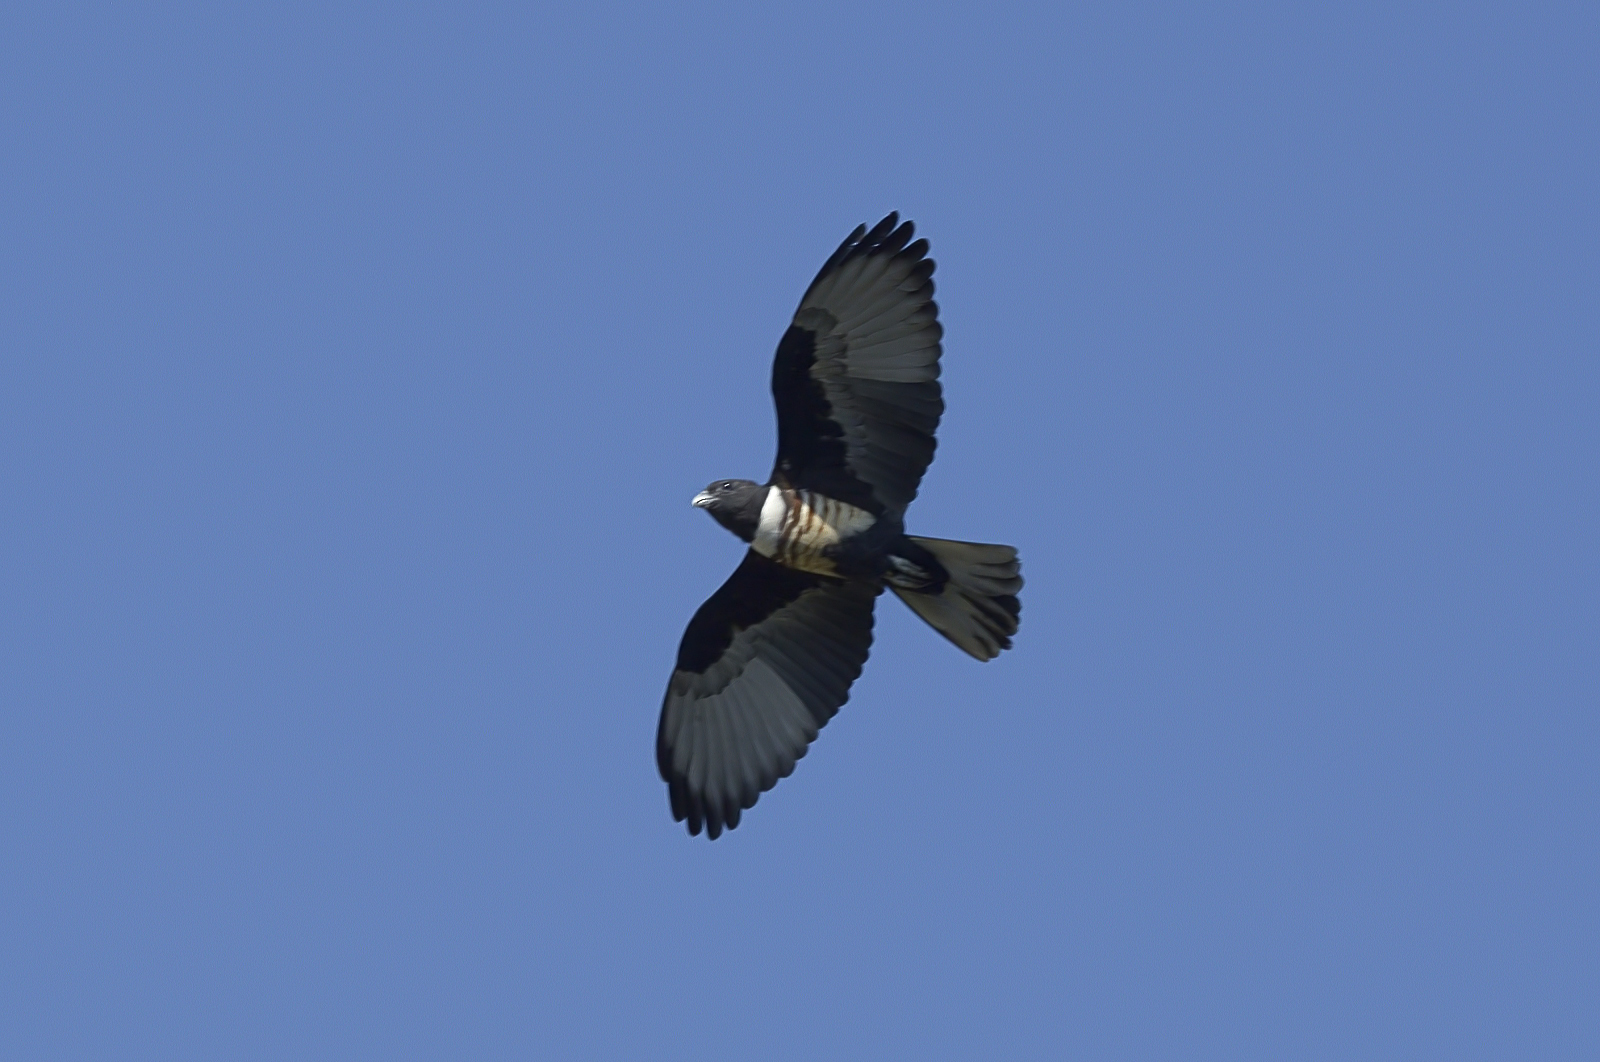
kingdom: Animalia
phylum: Chordata
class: Aves
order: Accipitriformes
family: Accipitridae
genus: Aviceda
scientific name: Aviceda leuphotes
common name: Black baza
